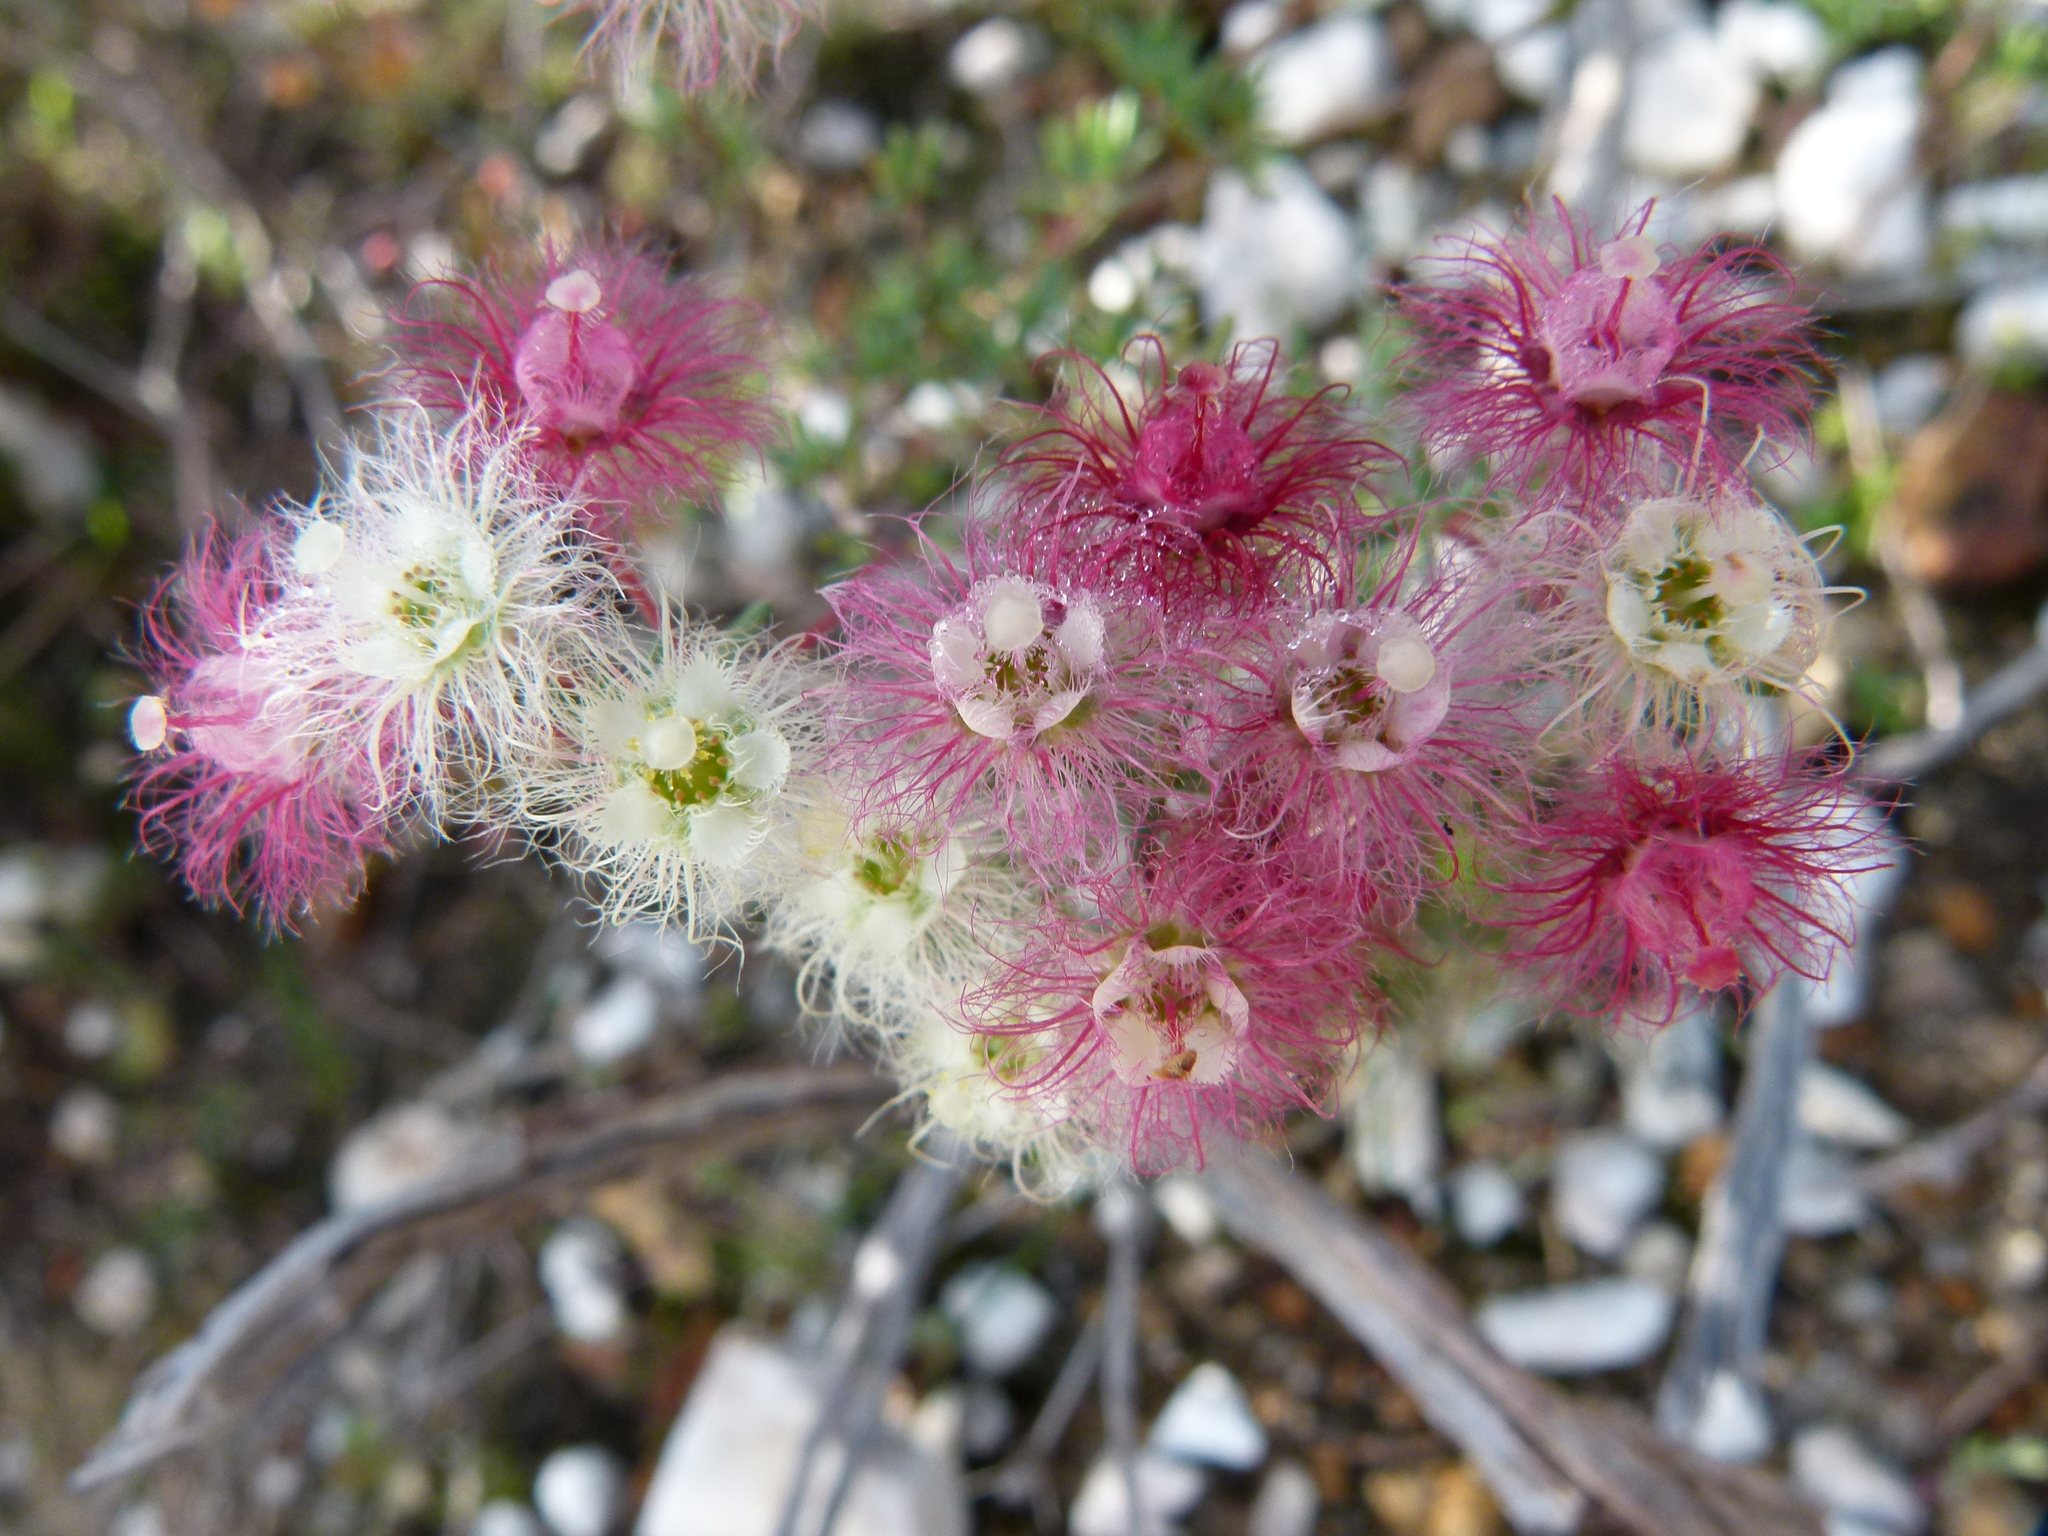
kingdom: Plantae
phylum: Tracheophyta
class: Magnoliopsida
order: Myrtales
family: Myrtaceae
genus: Verticordia
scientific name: Verticordia huegelii
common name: Variegate feather-flower
